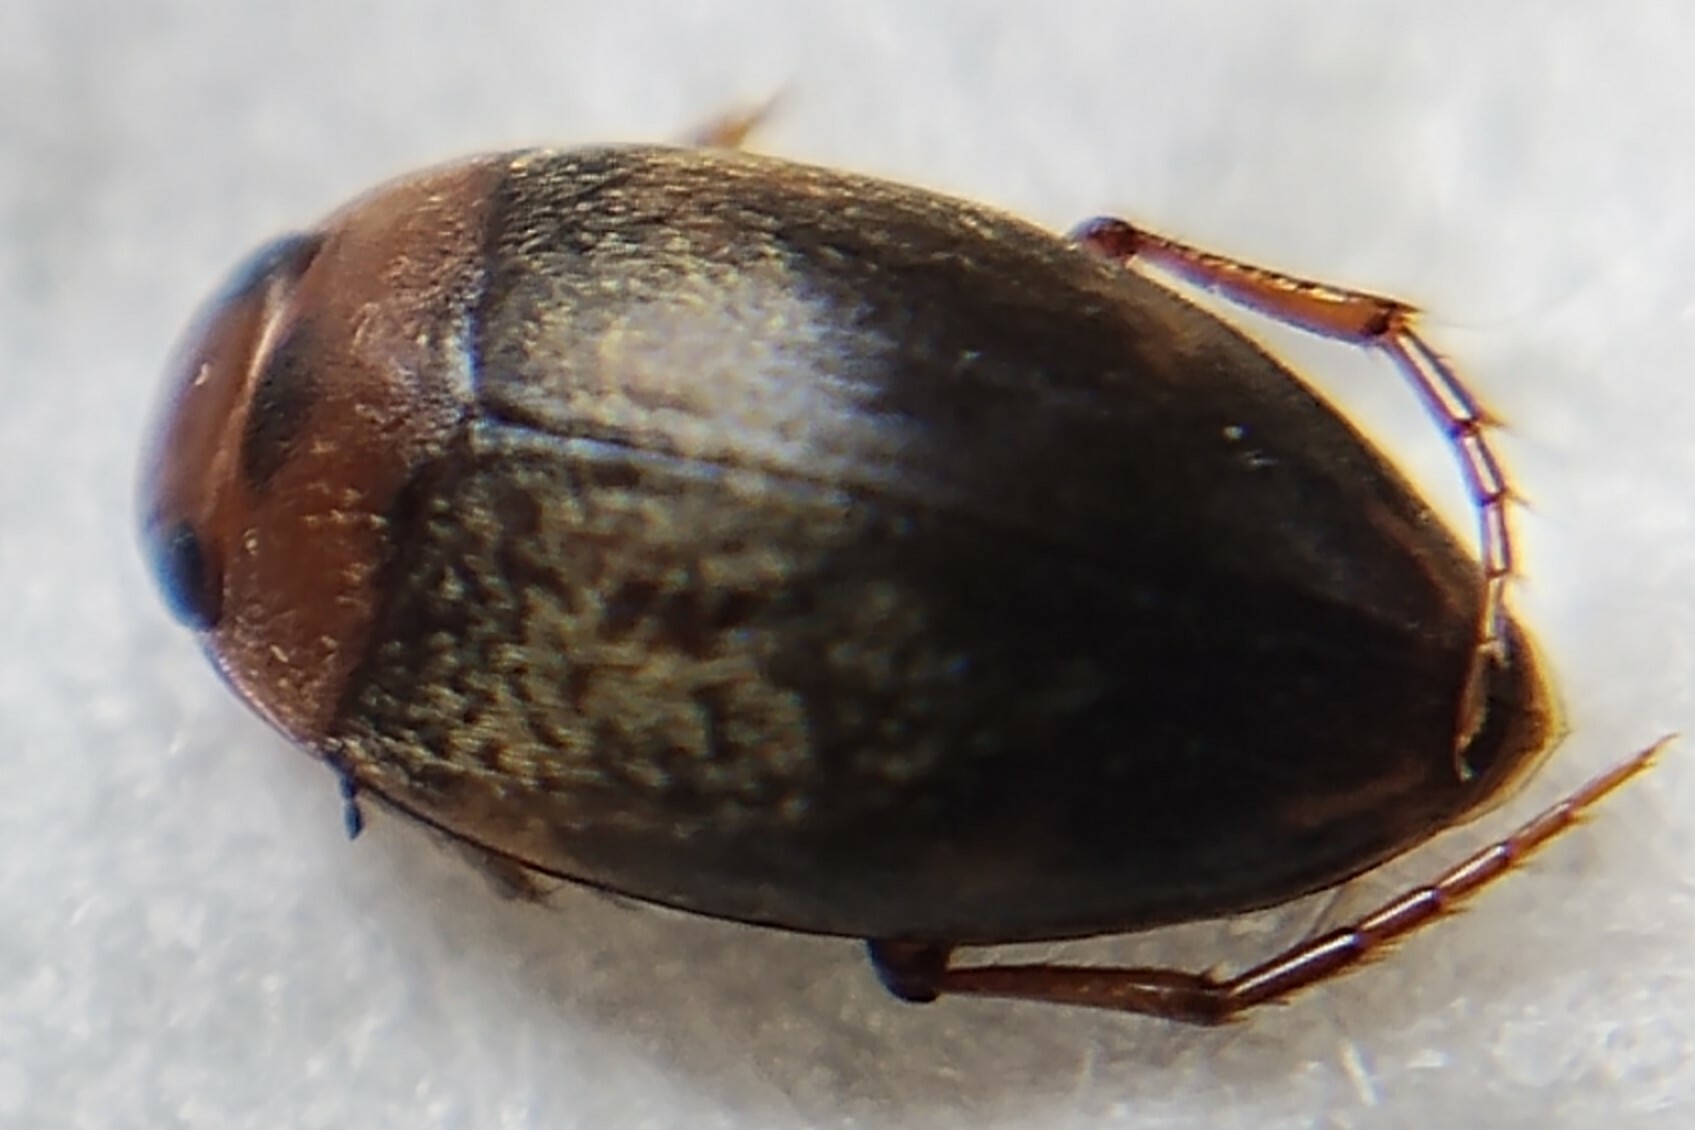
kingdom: Animalia
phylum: Arthropoda
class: Insecta
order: Coleoptera
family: Dytiscidae
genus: Neoporus
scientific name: Neoporus
